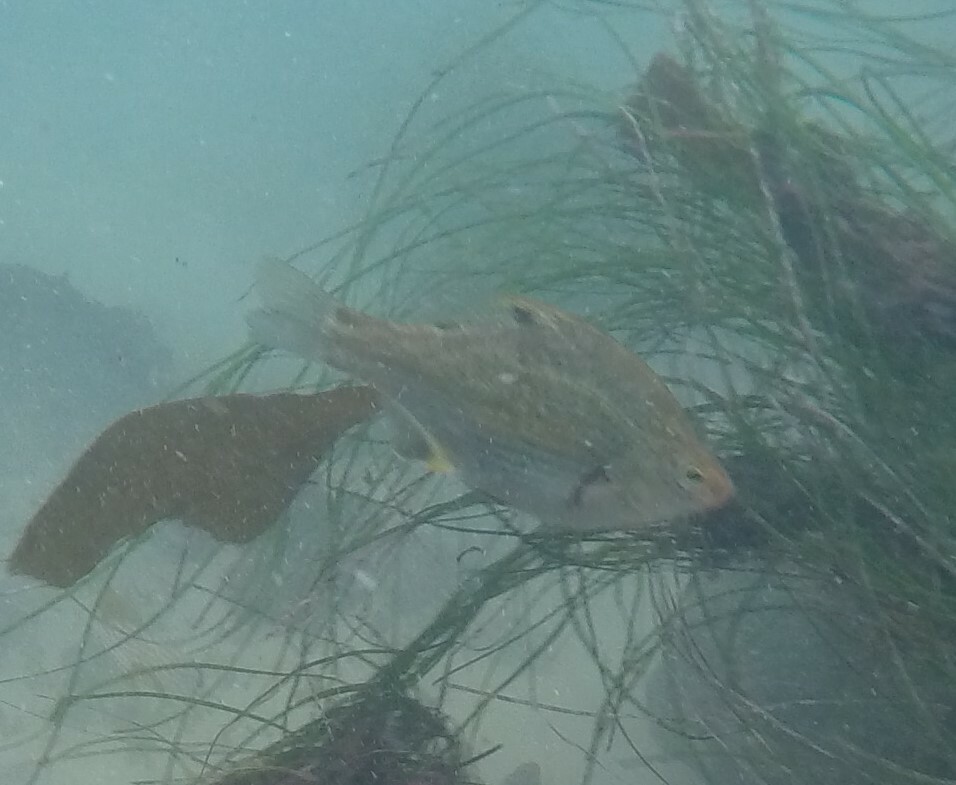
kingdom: Animalia
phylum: Chordata
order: Perciformes
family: Embiotocidae
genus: Micrometrus
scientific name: Micrometrus minimus
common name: Dwarf perch
